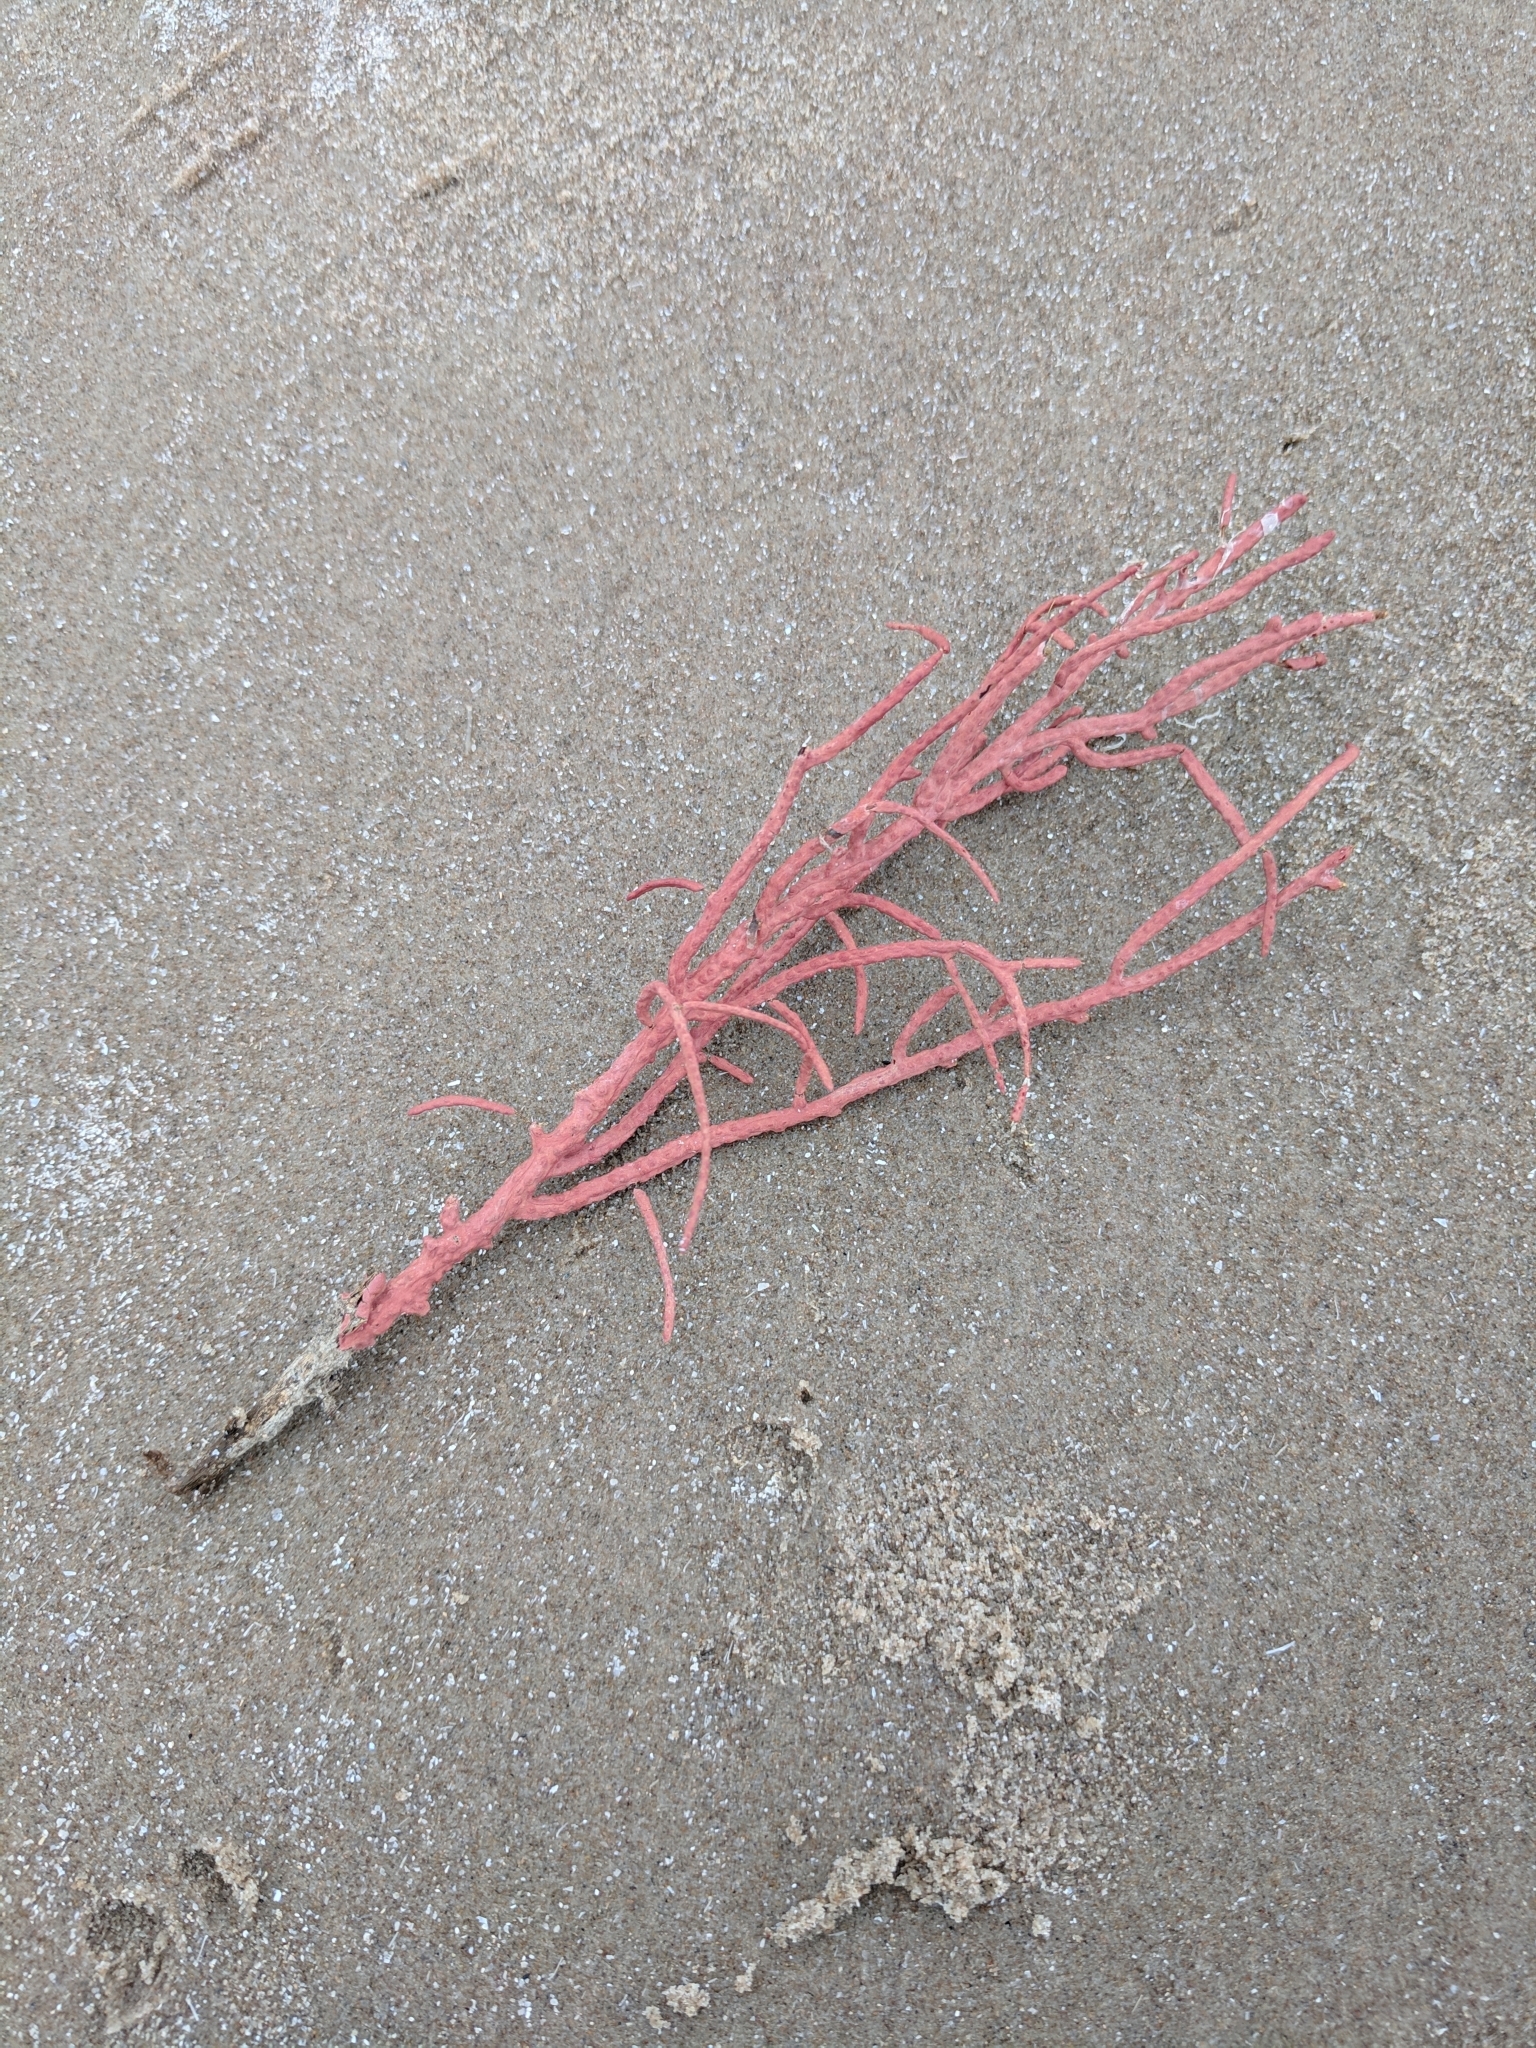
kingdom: Animalia
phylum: Cnidaria
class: Anthozoa
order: Malacalcyonacea
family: Gorgoniidae
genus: Leptogorgia
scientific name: Leptogorgia hebes
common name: Regal sea fan
